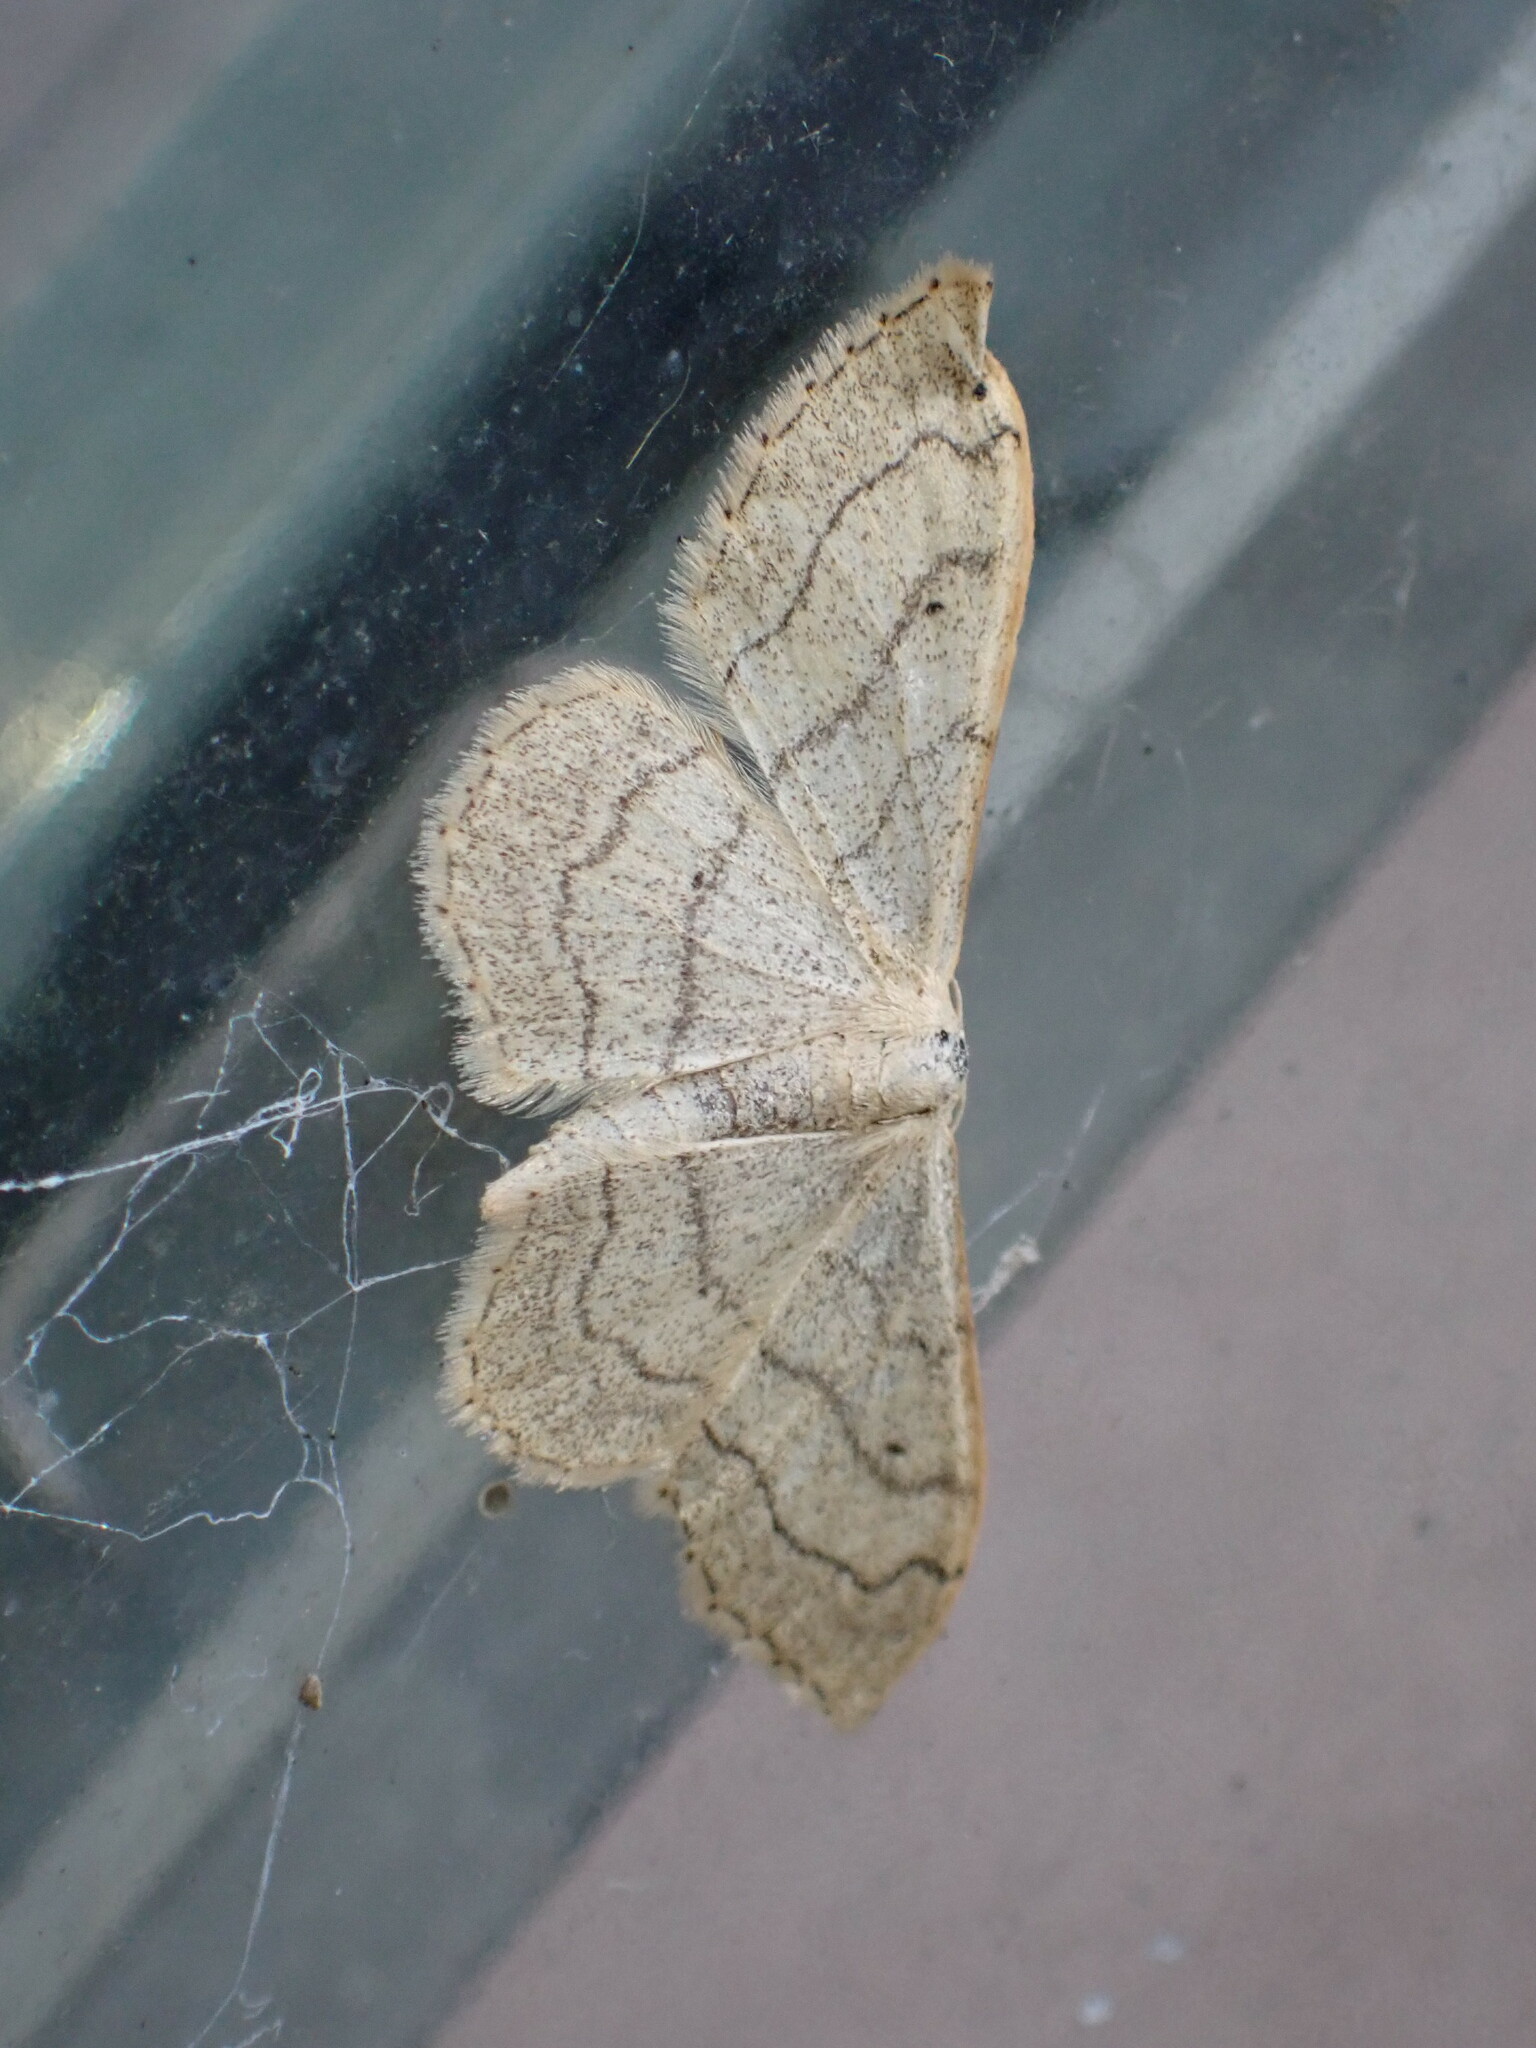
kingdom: Animalia
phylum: Arthropoda
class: Insecta
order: Lepidoptera
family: Geometridae
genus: Idaea
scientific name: Idaea aversata
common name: Riband wave
